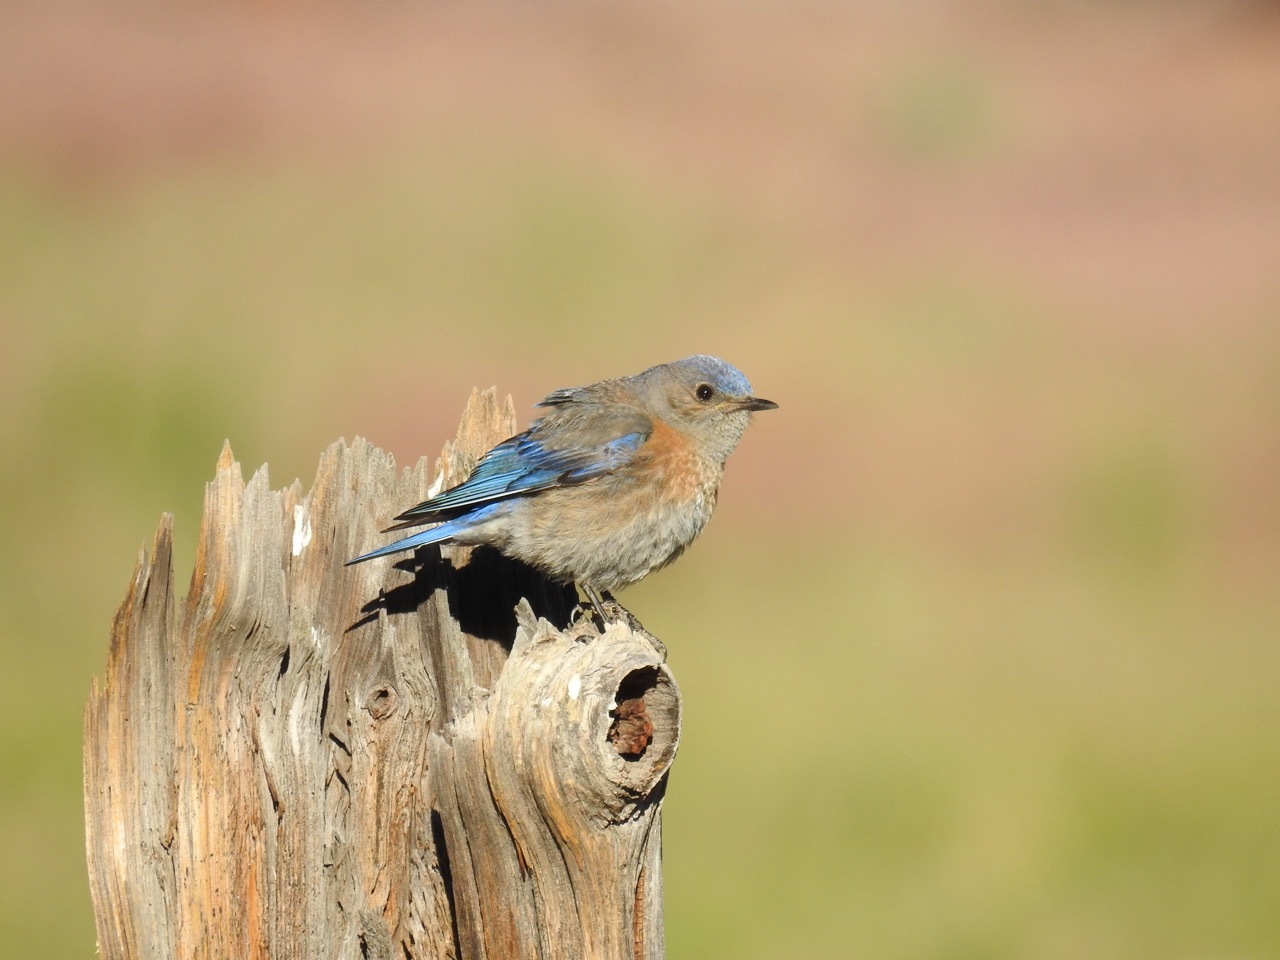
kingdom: Animalia
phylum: Chordata
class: Aves
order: Passeriformes
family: Turdidae
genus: Sialia
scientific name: Sialia mexicana
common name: Western bluebird
